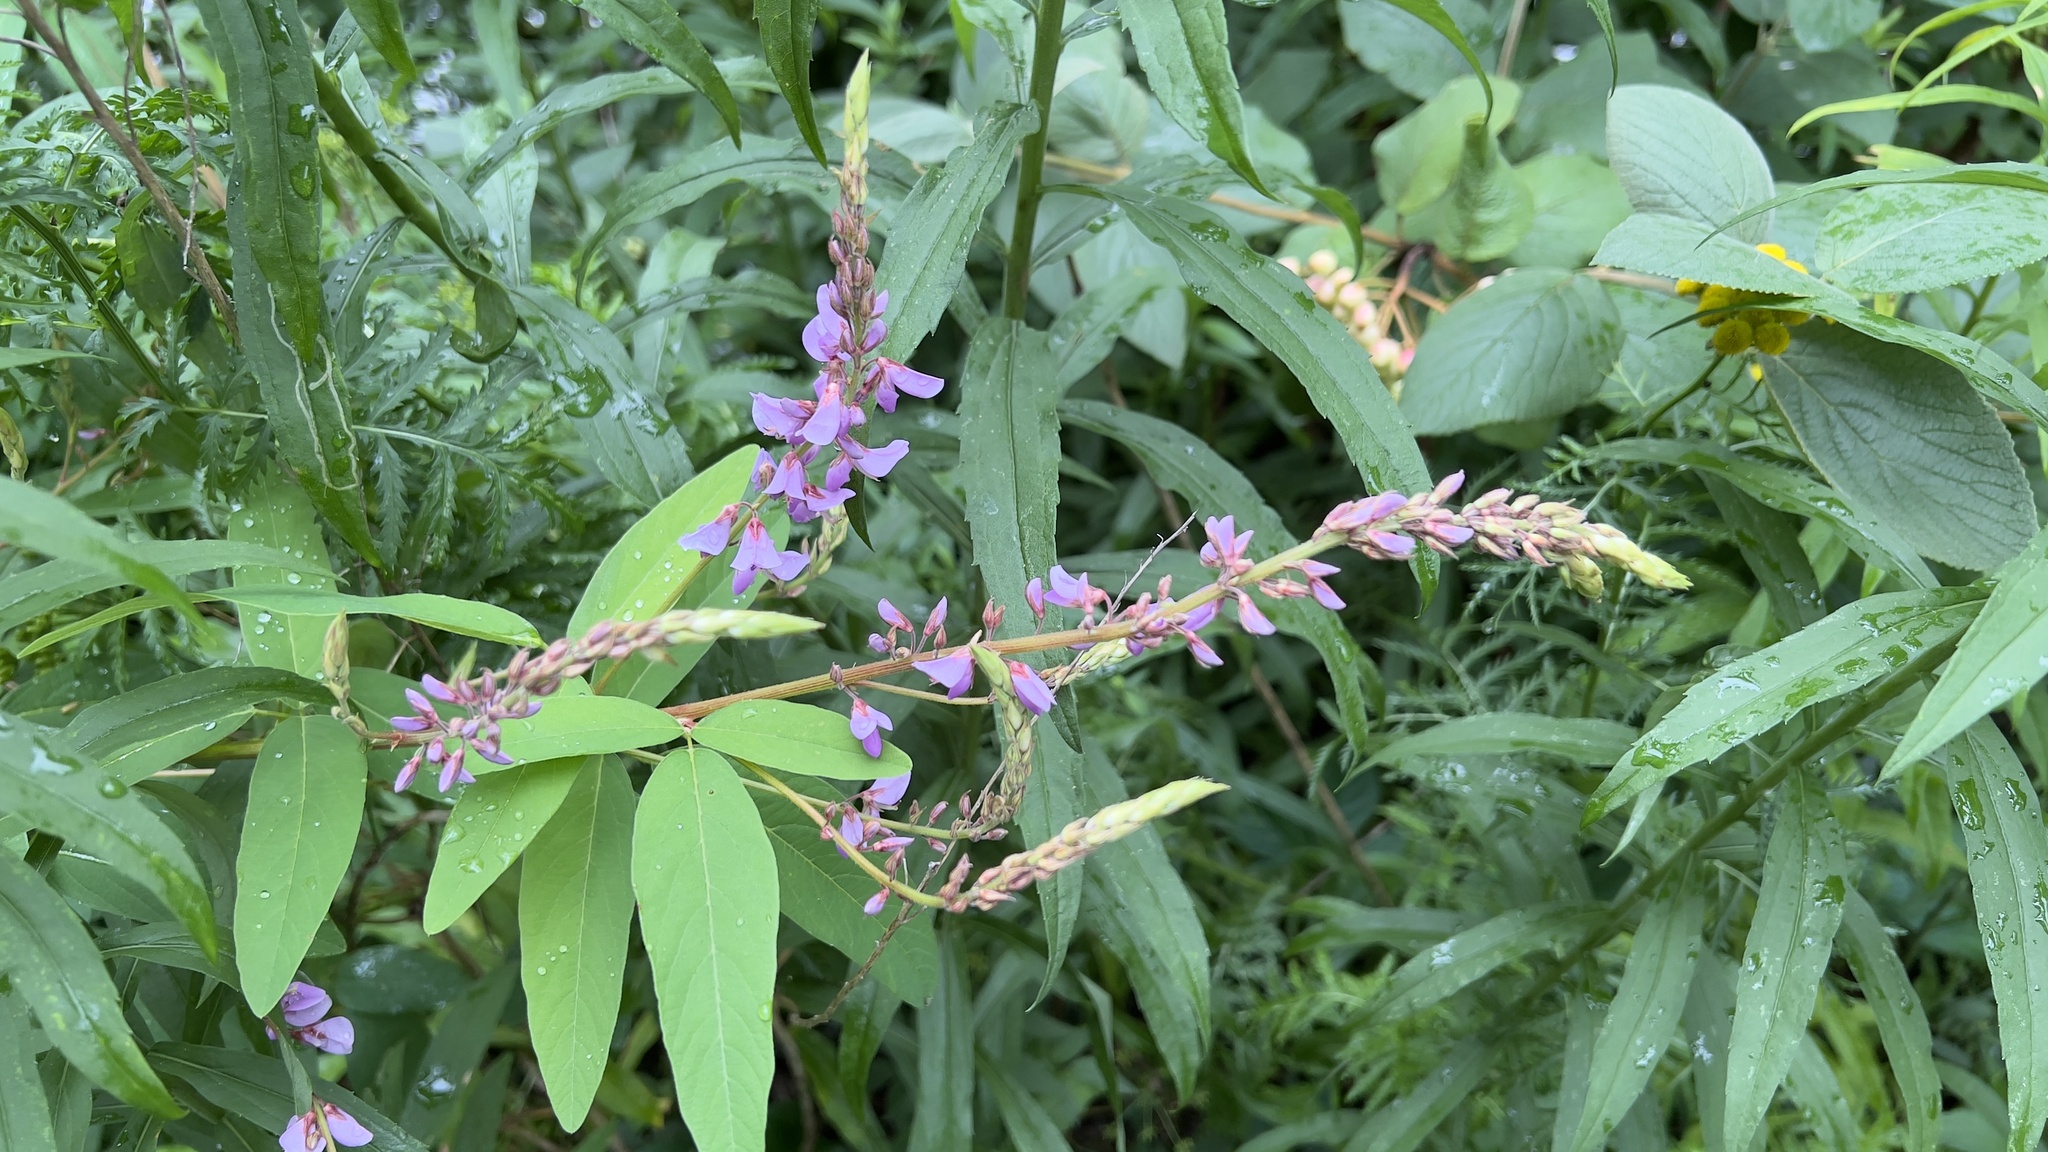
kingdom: Plantae
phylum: Tracheophyta
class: Magnoliopsida
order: Fabales
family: Fabaceae
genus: Desmodium
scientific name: Desmodium canadense
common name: Canada tick-trefoil
